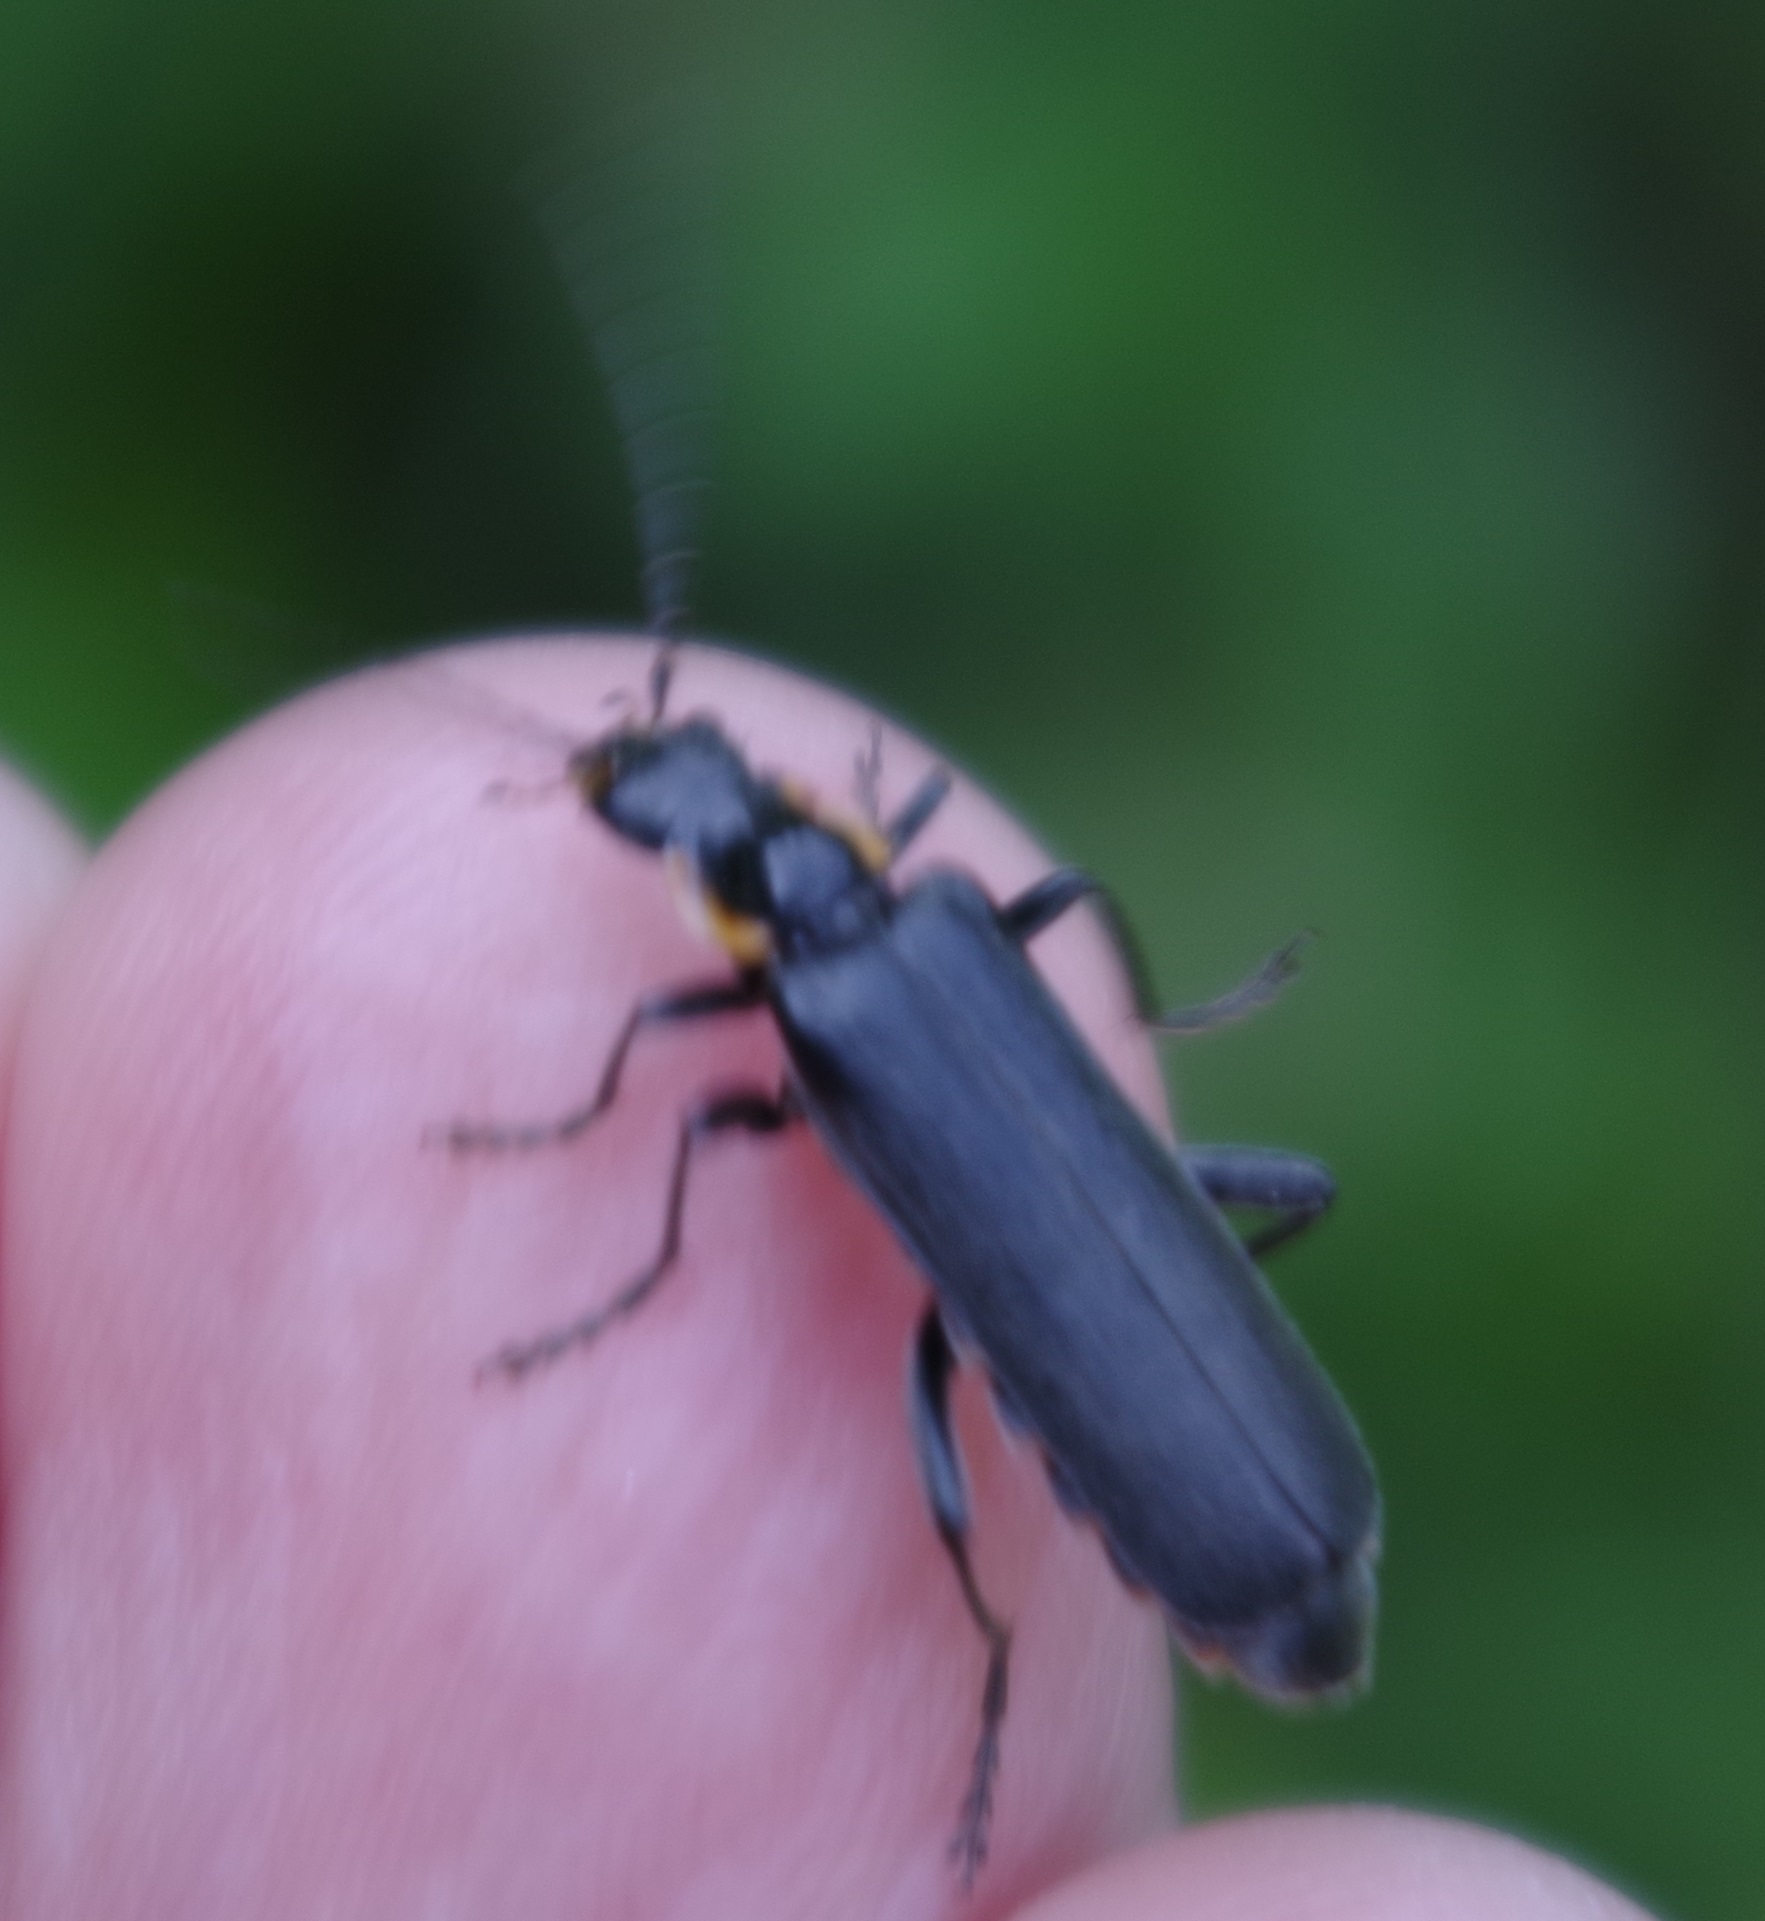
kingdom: Animalia
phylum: Arthropoda
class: Insecta
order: Coleoptera
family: Cantharidae
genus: Cantharis
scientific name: Cantharis obscura
